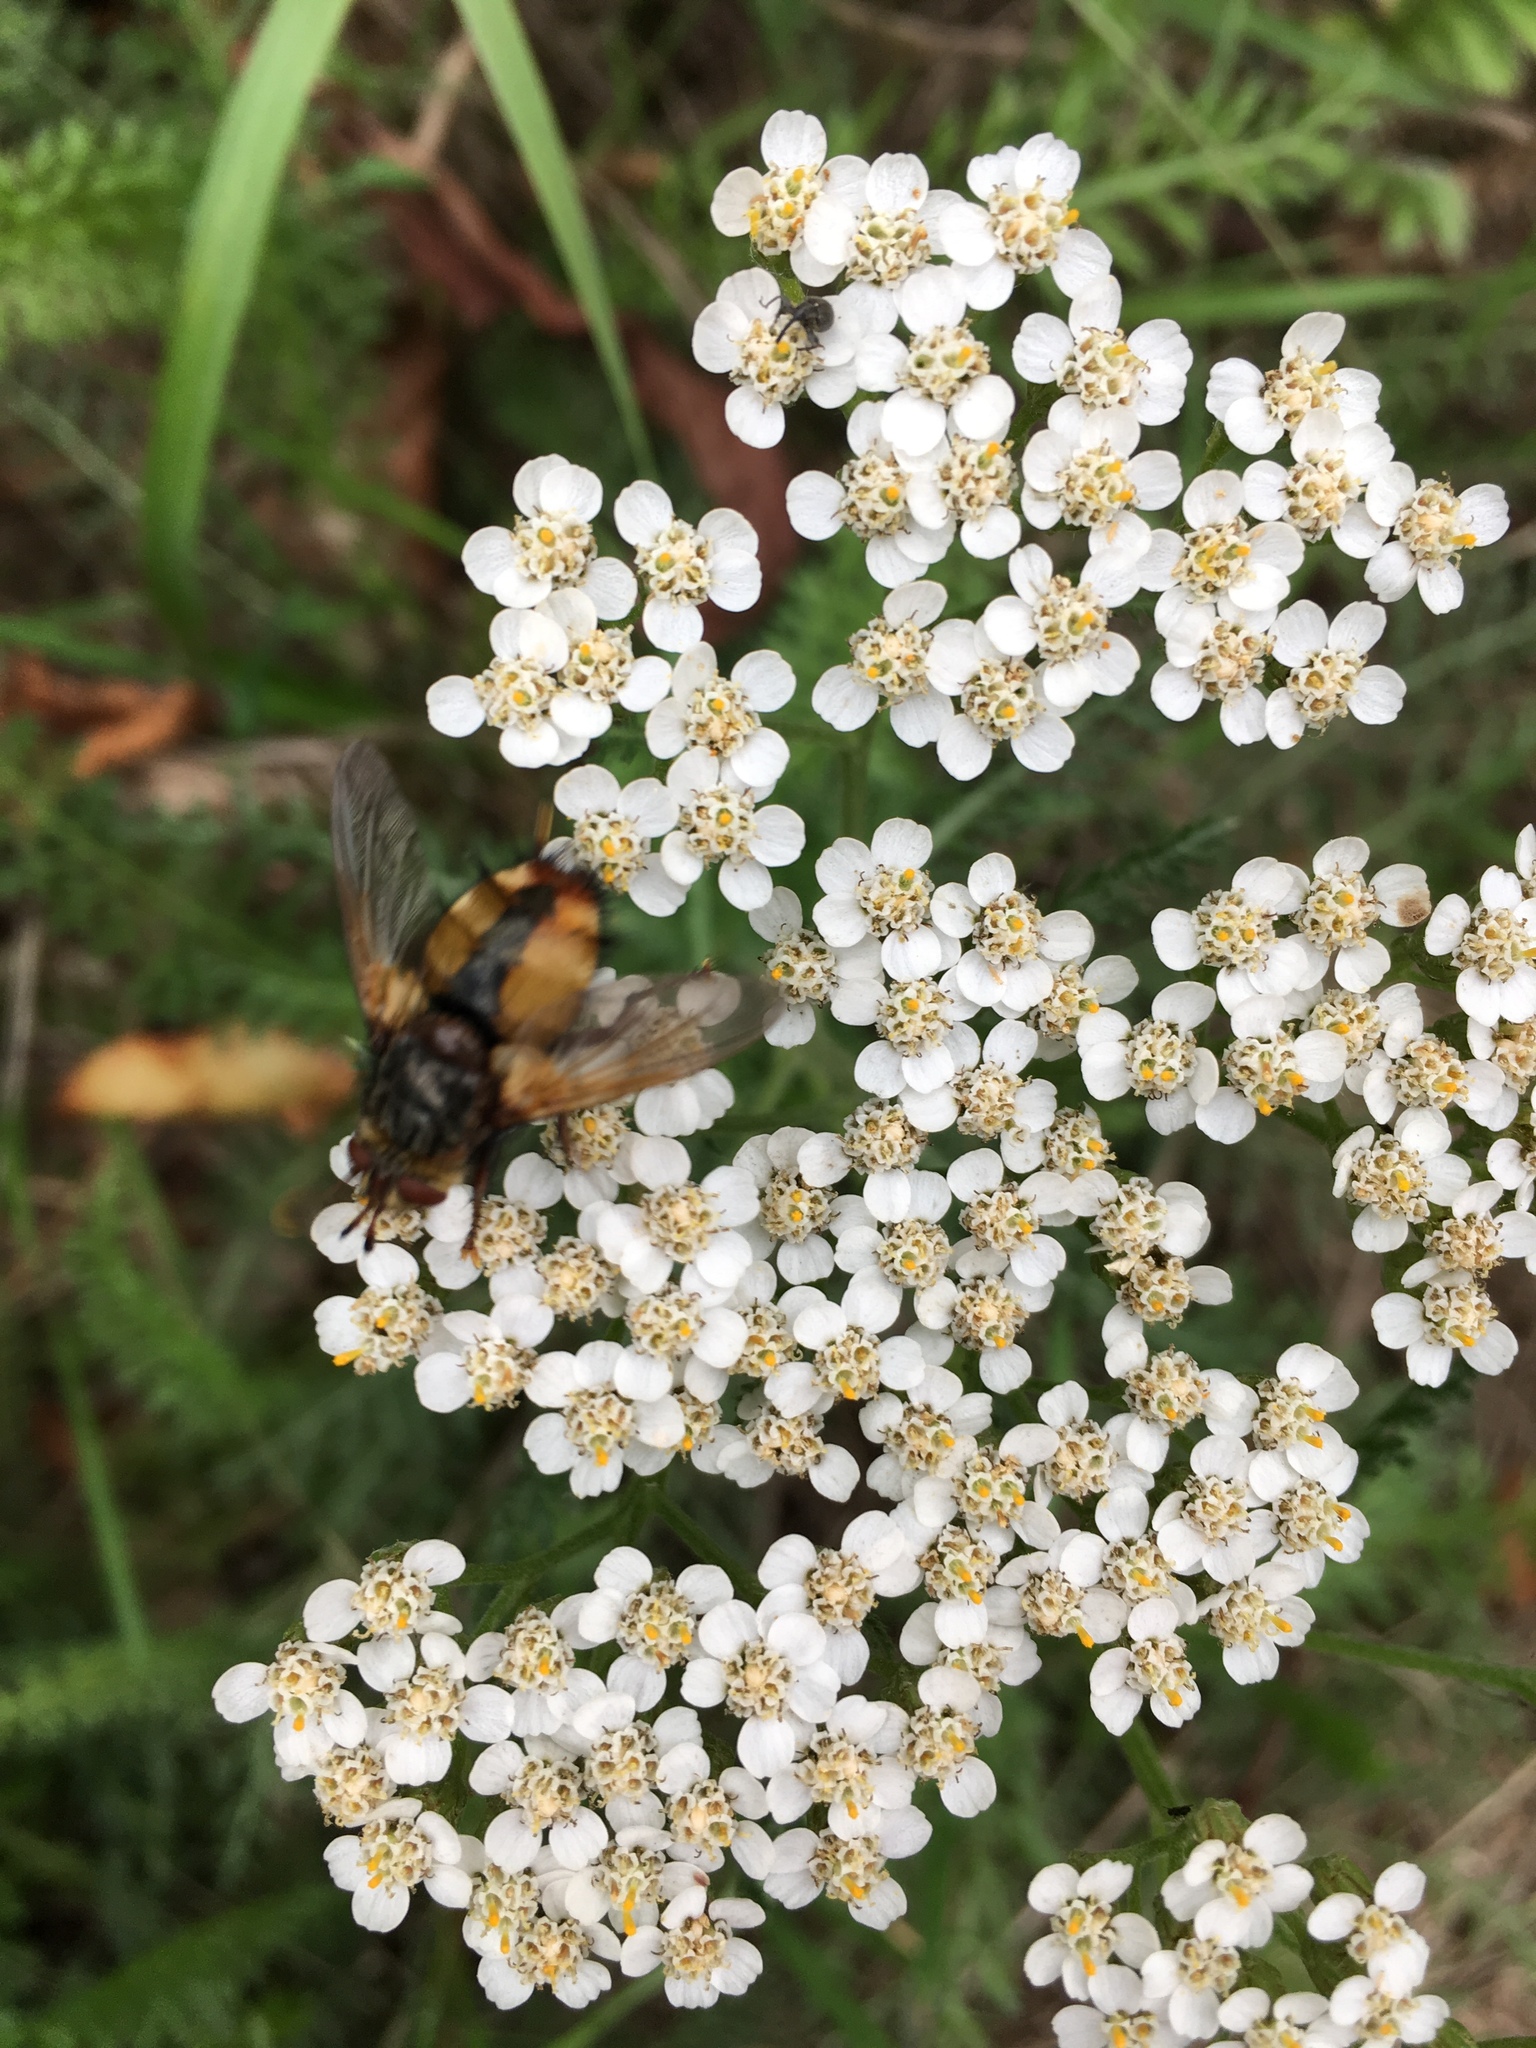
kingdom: Plantae
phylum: Tracheophyta
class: Magnoliopsida
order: Asterales
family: Asteraceae
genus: Achillea
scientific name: Achillea millefolium
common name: Yarrow
